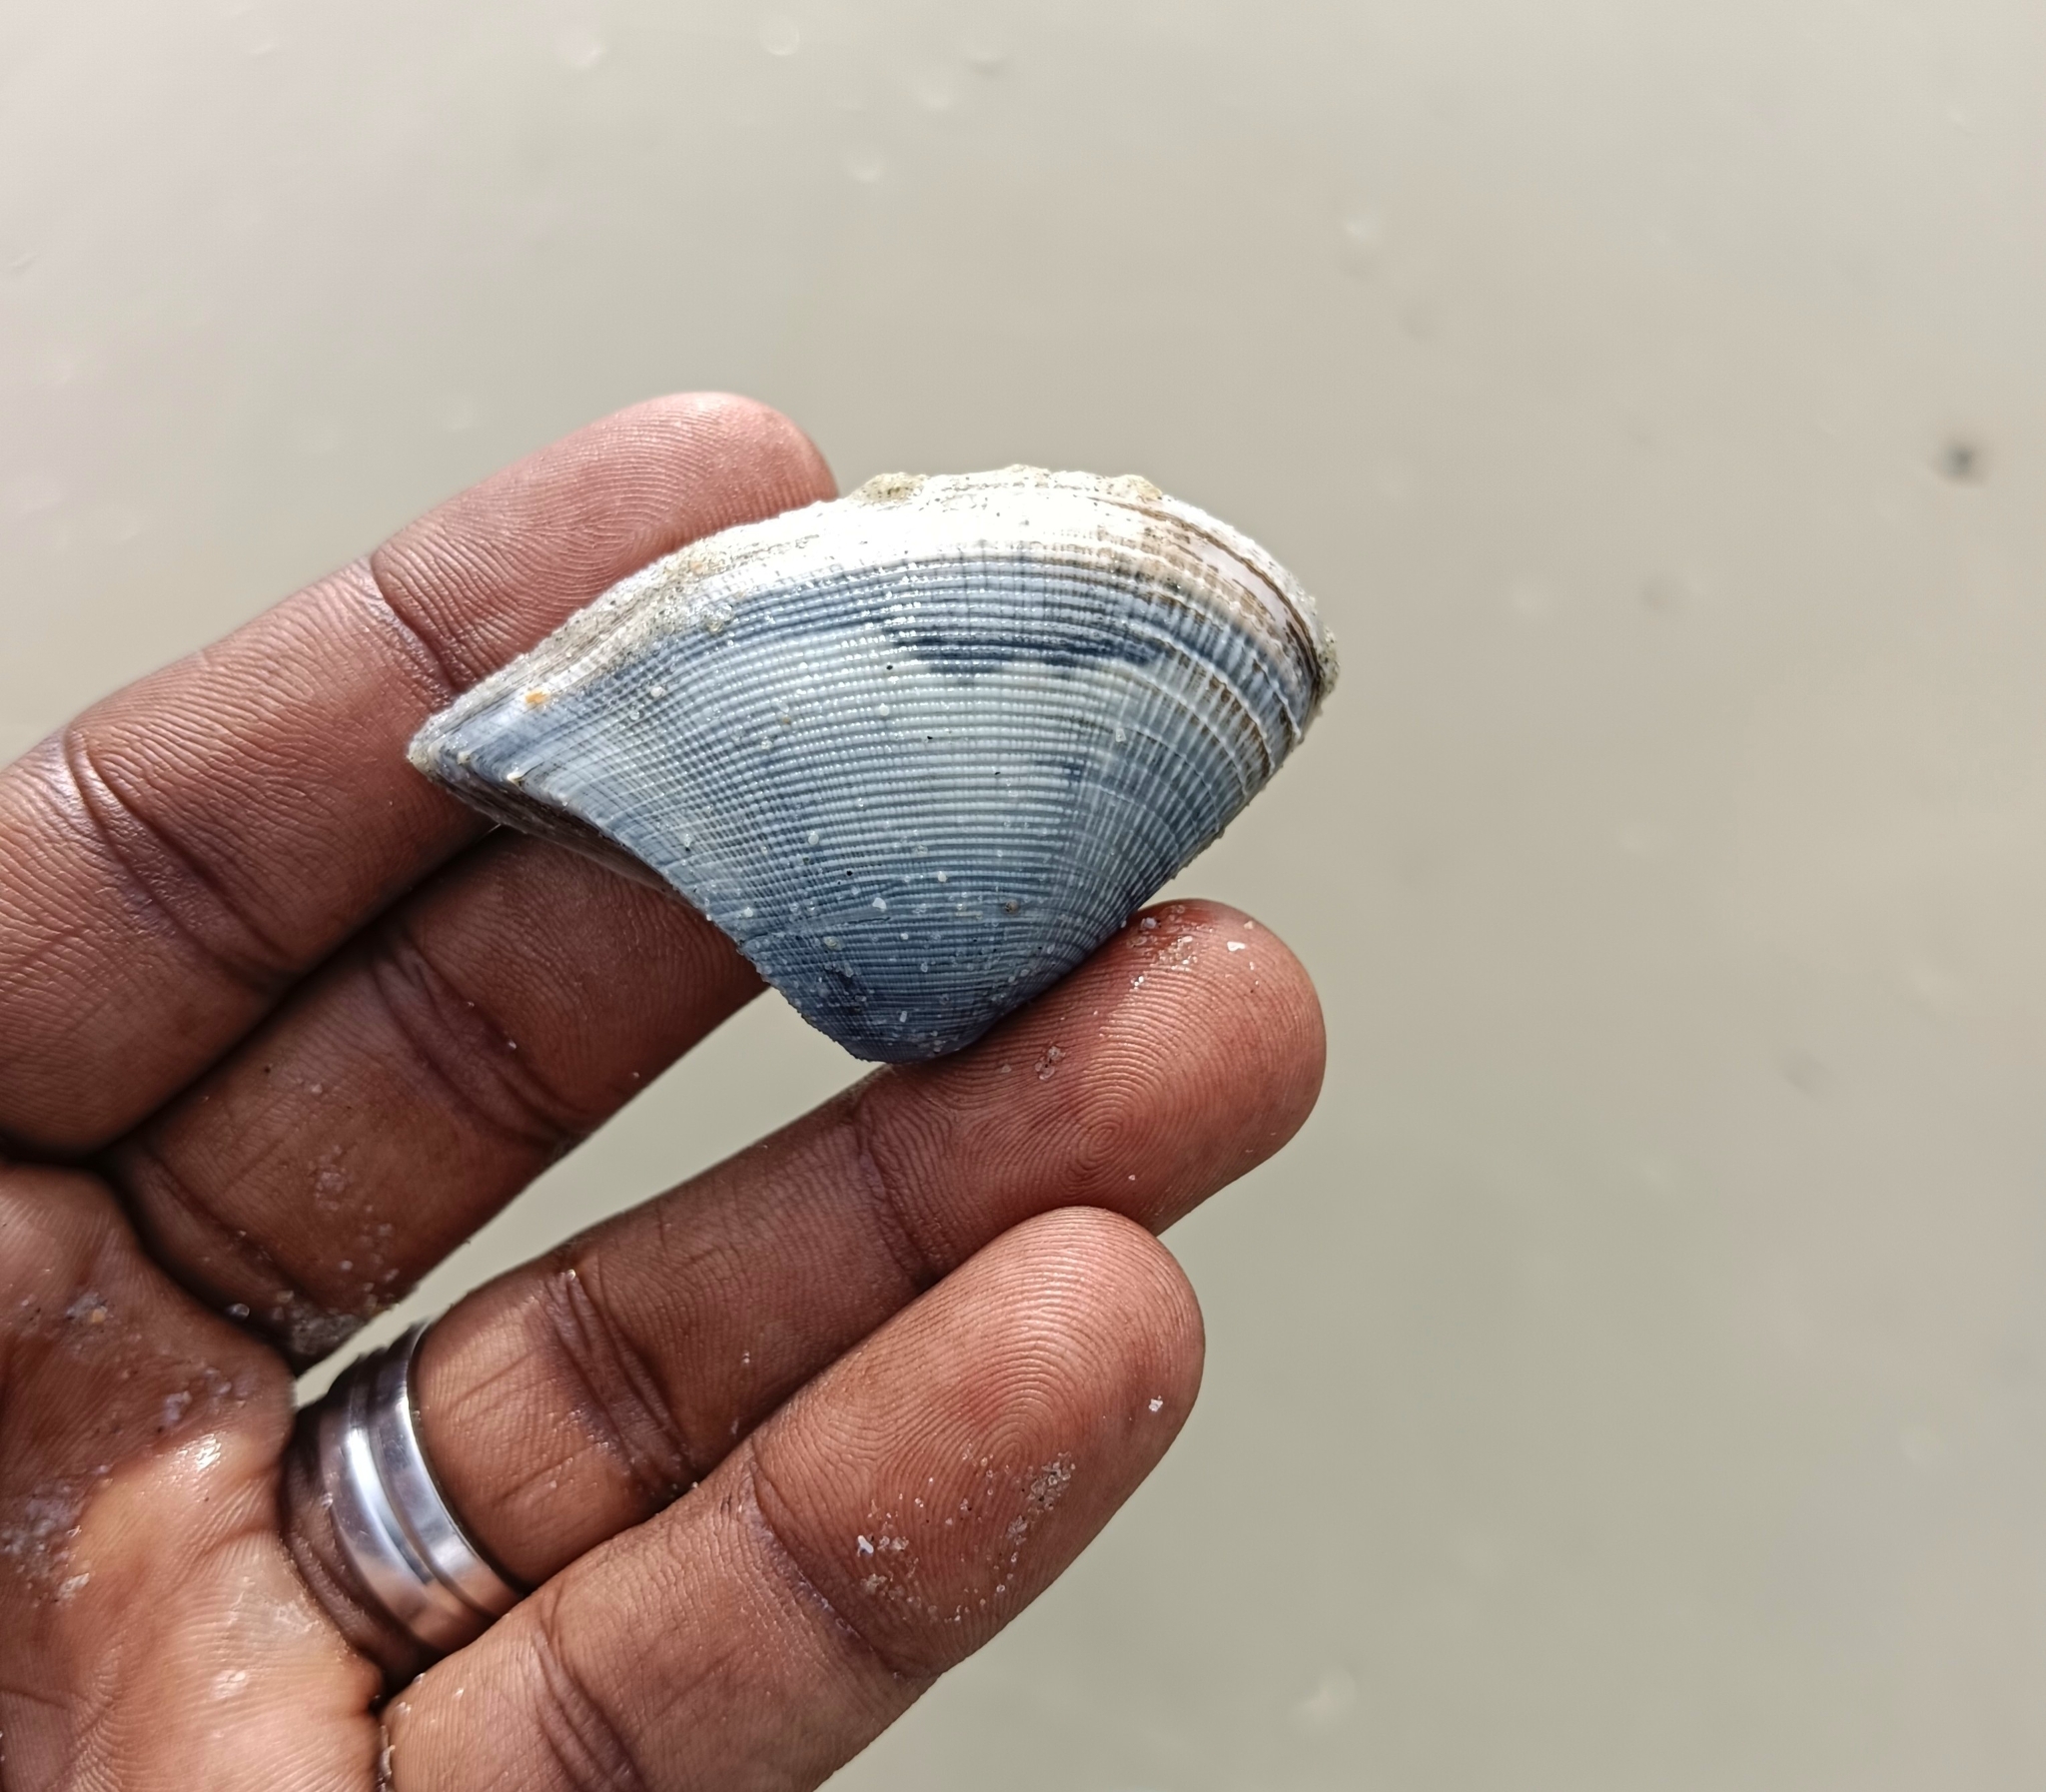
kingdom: Animalia
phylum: Mollusca
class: Bivalvia
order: Cardiida
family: Donacidae
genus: Hecuba
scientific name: Hecuba scortum
